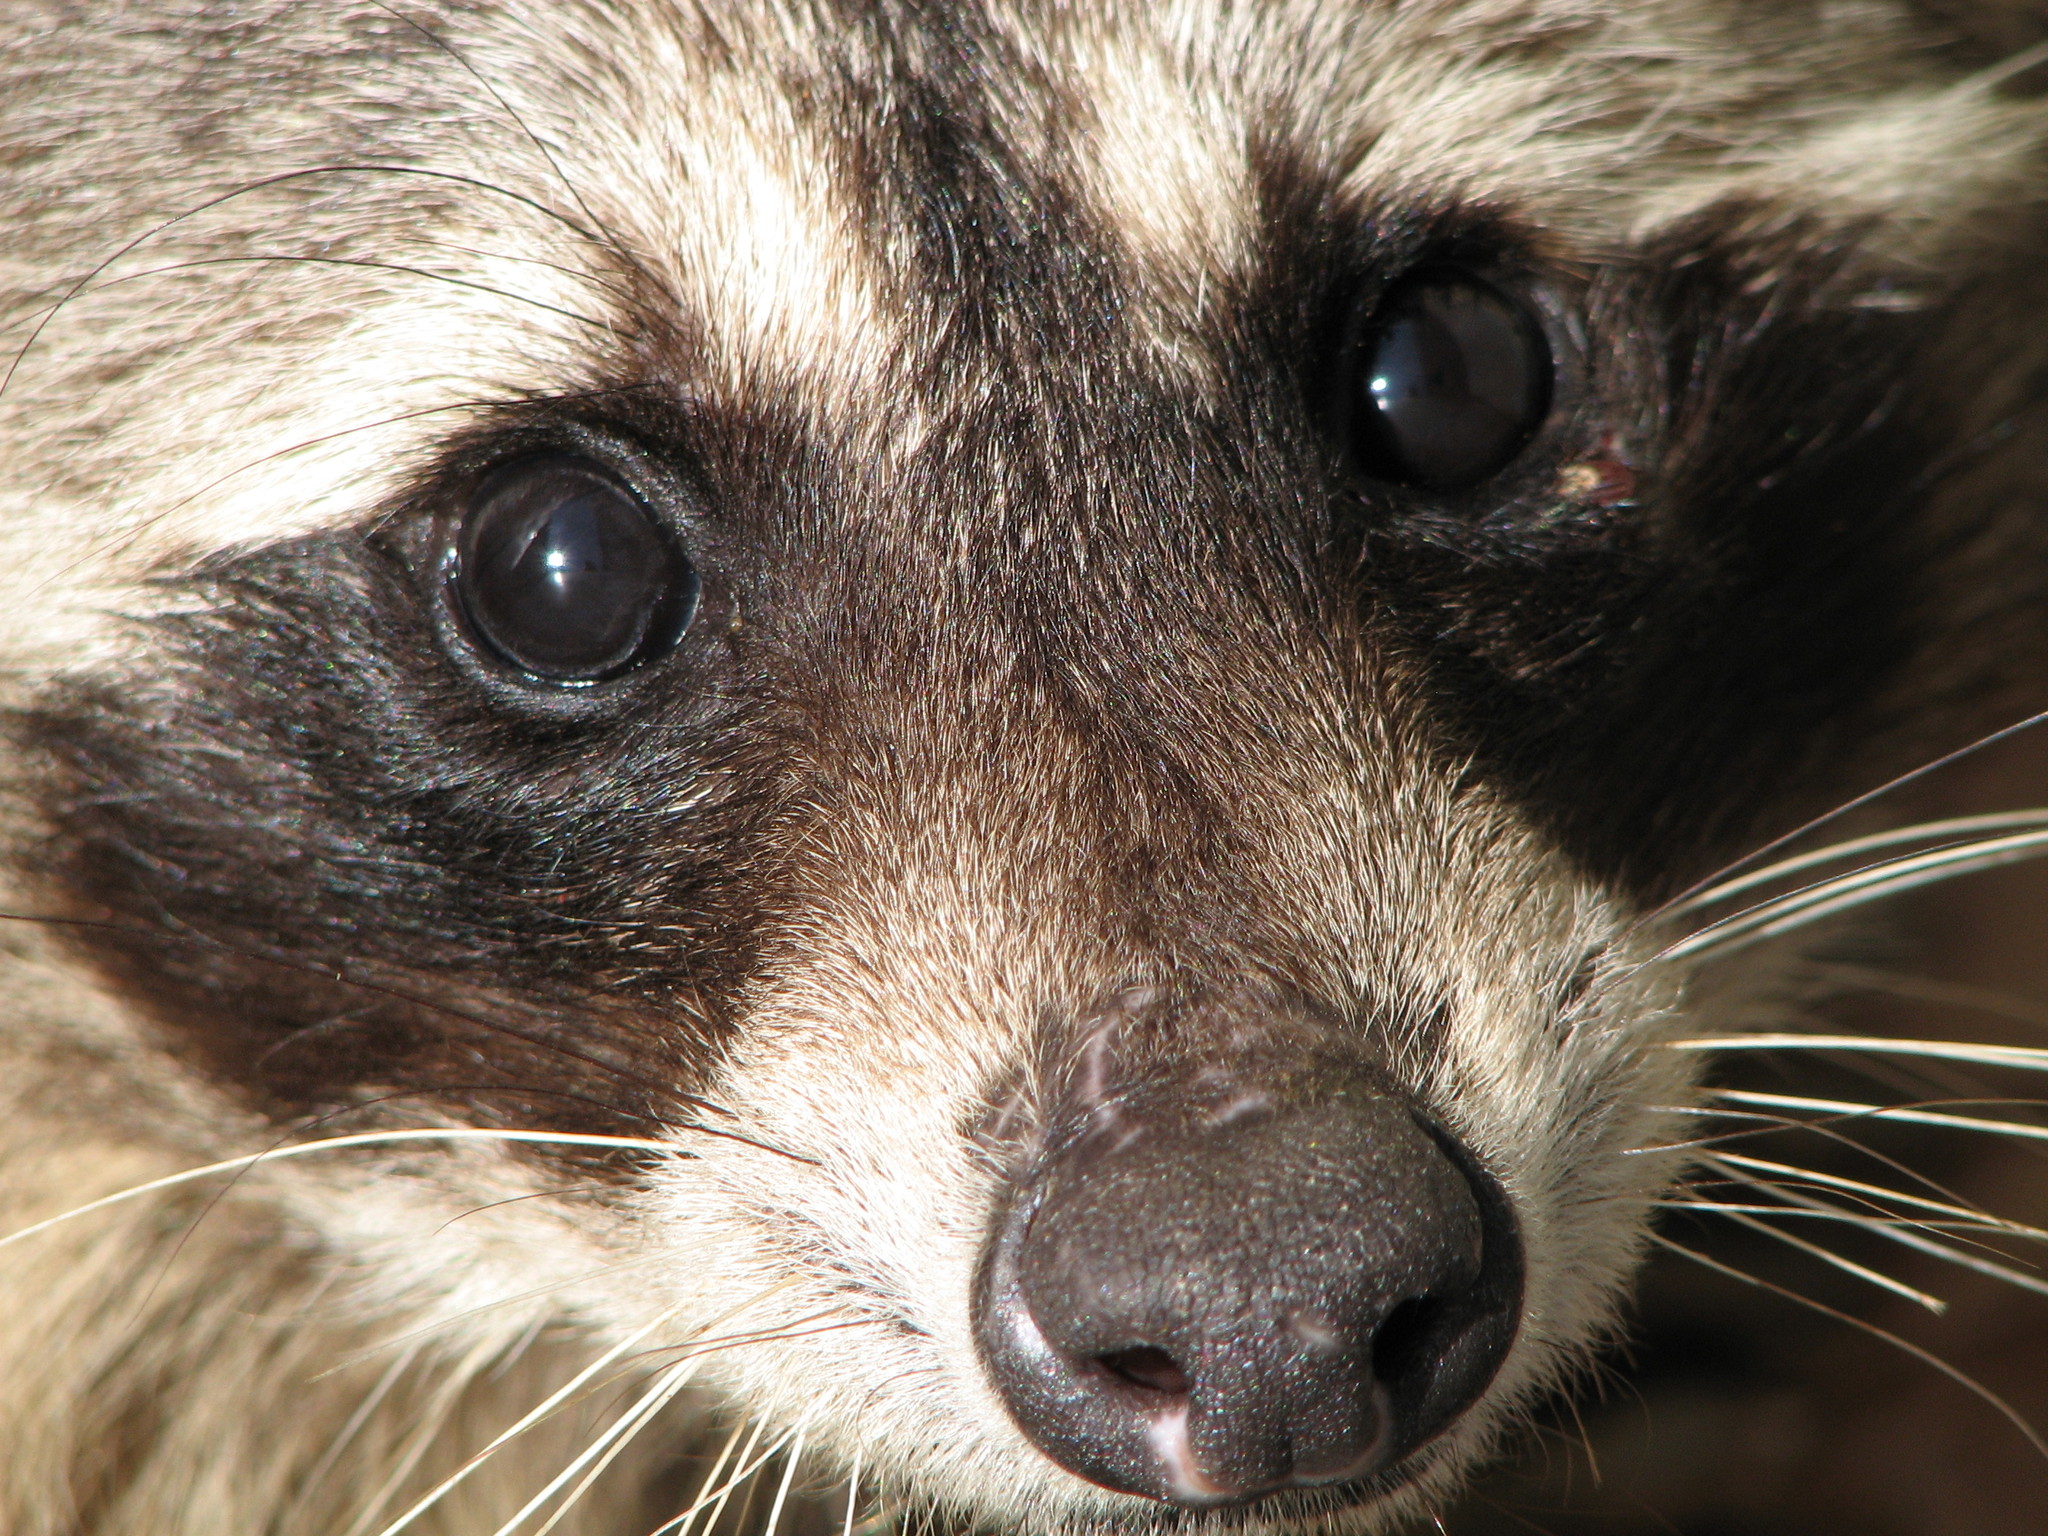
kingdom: Animalia
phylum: Chordata
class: Mammalia
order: Carnivora
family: Procyonidae
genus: Procyon
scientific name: Procyon lotor
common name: Raccoon
